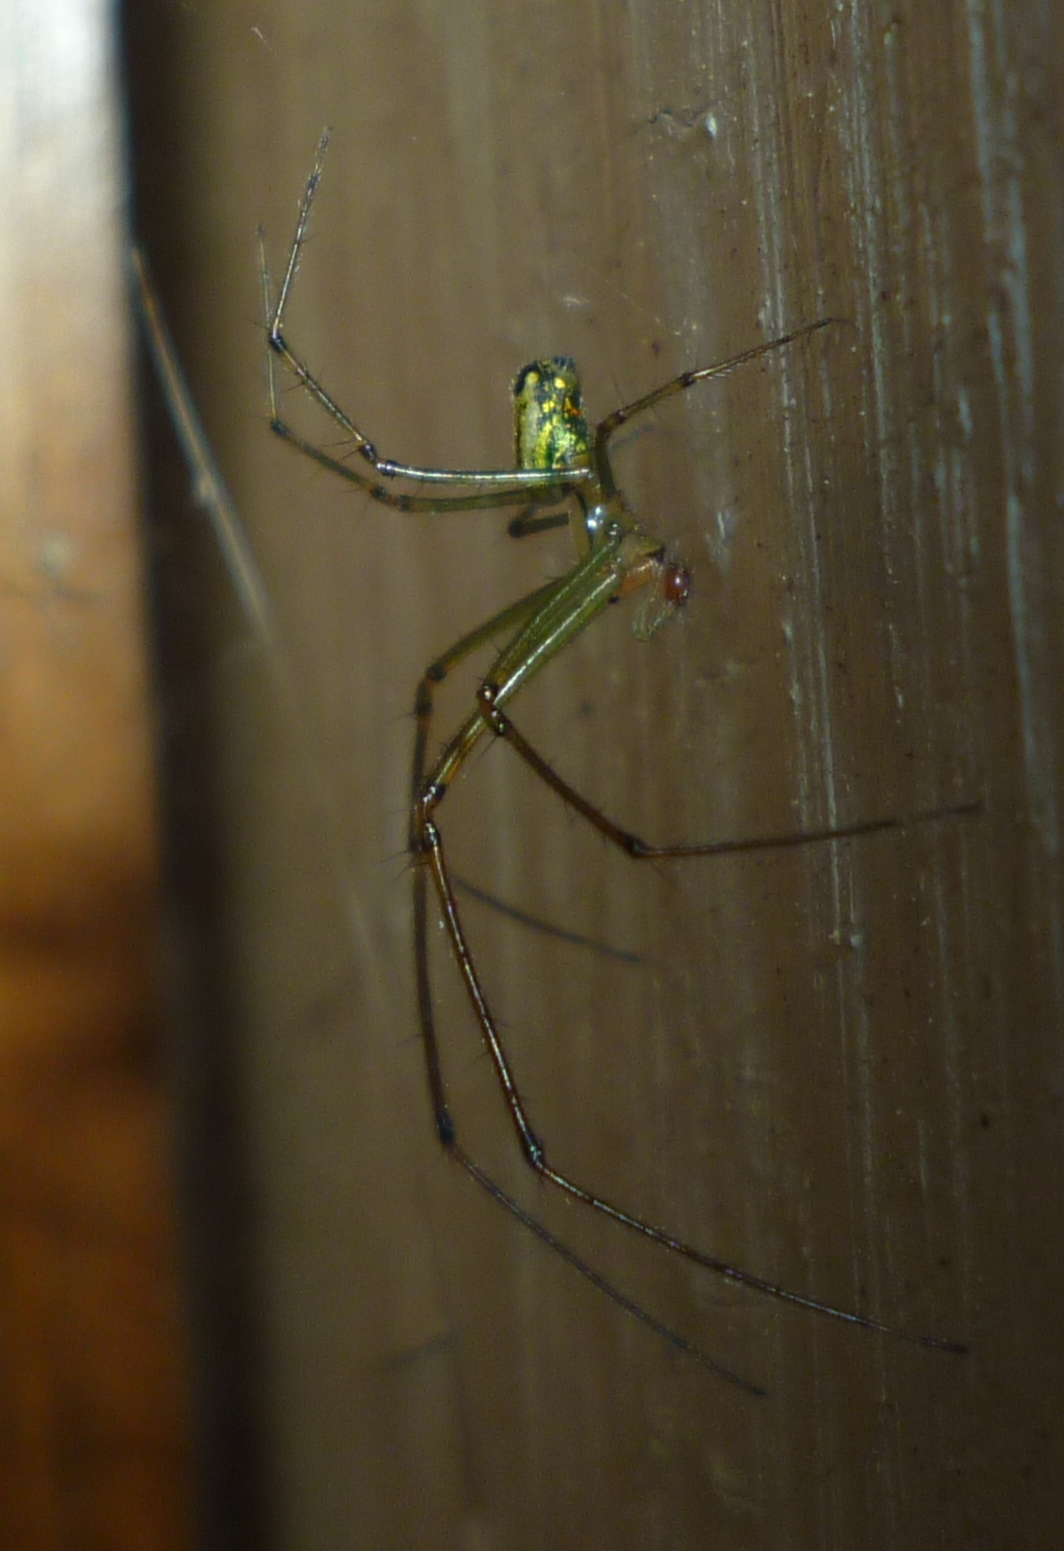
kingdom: Animalia
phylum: Arthropoda
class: Arachnida
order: Araneae
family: Tetragnathidae
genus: Leucauge
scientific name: Leucauge venusta
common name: Longjawed orb weavers
